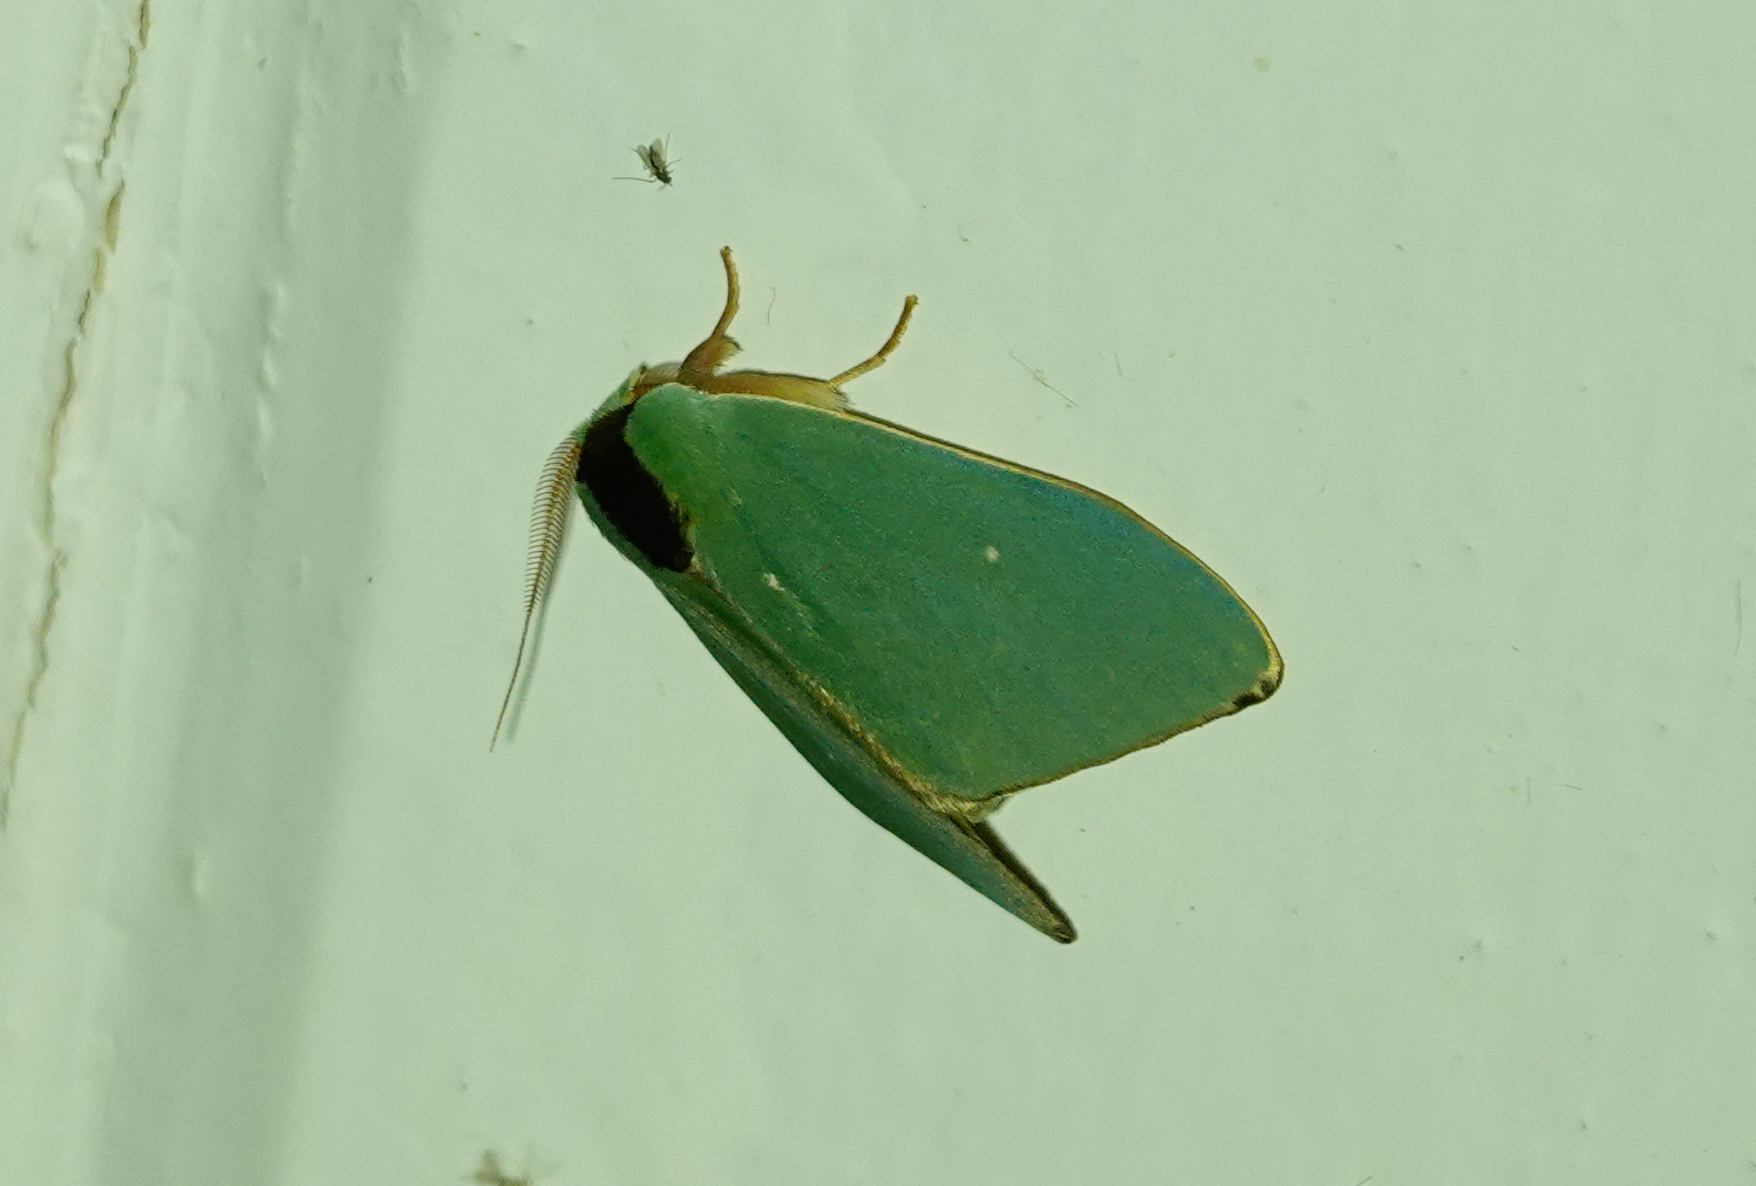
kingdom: Animalia
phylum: Arthropoda
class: Insecta
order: Lepidoptera
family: Notodontidae
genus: Rosema
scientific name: Rosema zelica
